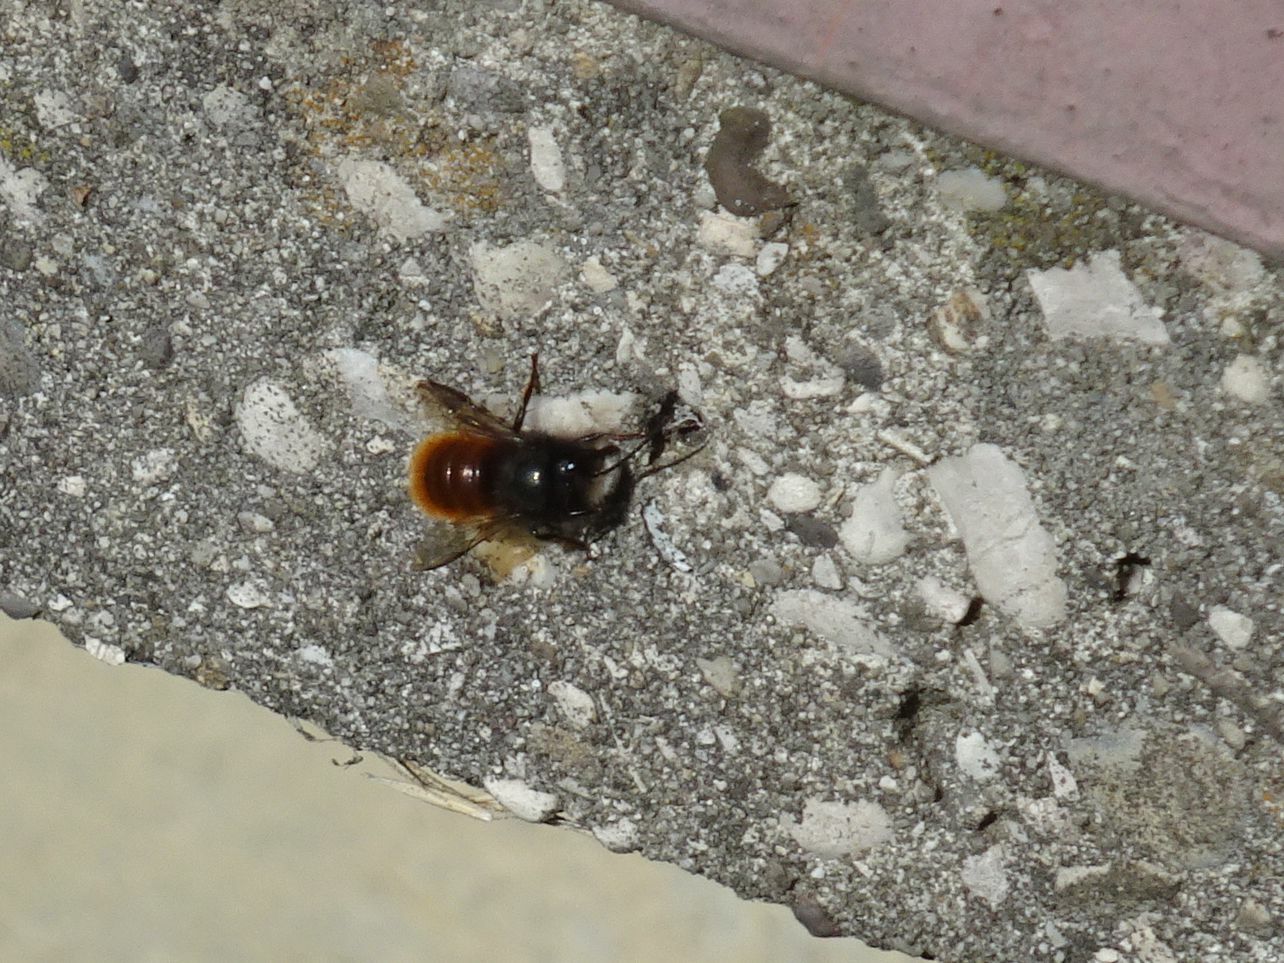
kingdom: Animalia
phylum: Arthropoda
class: Insecta
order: Hymenoptera
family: Megachilidae
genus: Osmia
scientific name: Osmia cornuta
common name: Mason bee
